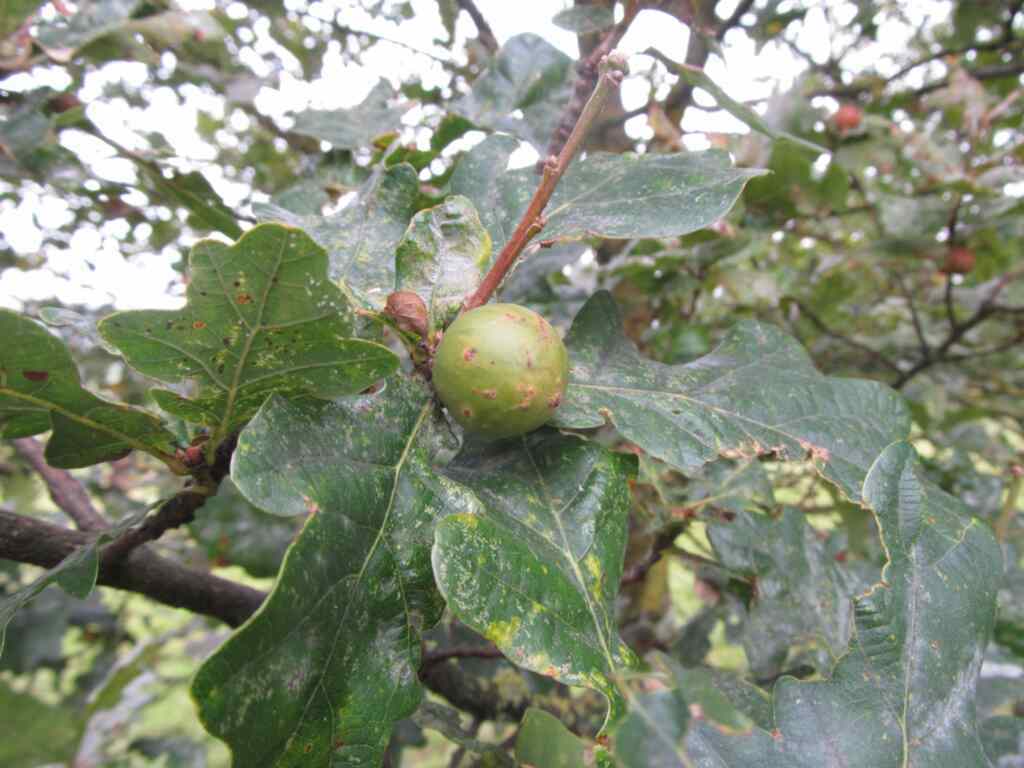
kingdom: Animalia
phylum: Arthropoda
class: Insecta
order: Hymenoptera
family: Cynipidae
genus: Andricus
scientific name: Andricus kollari
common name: Marble gall
